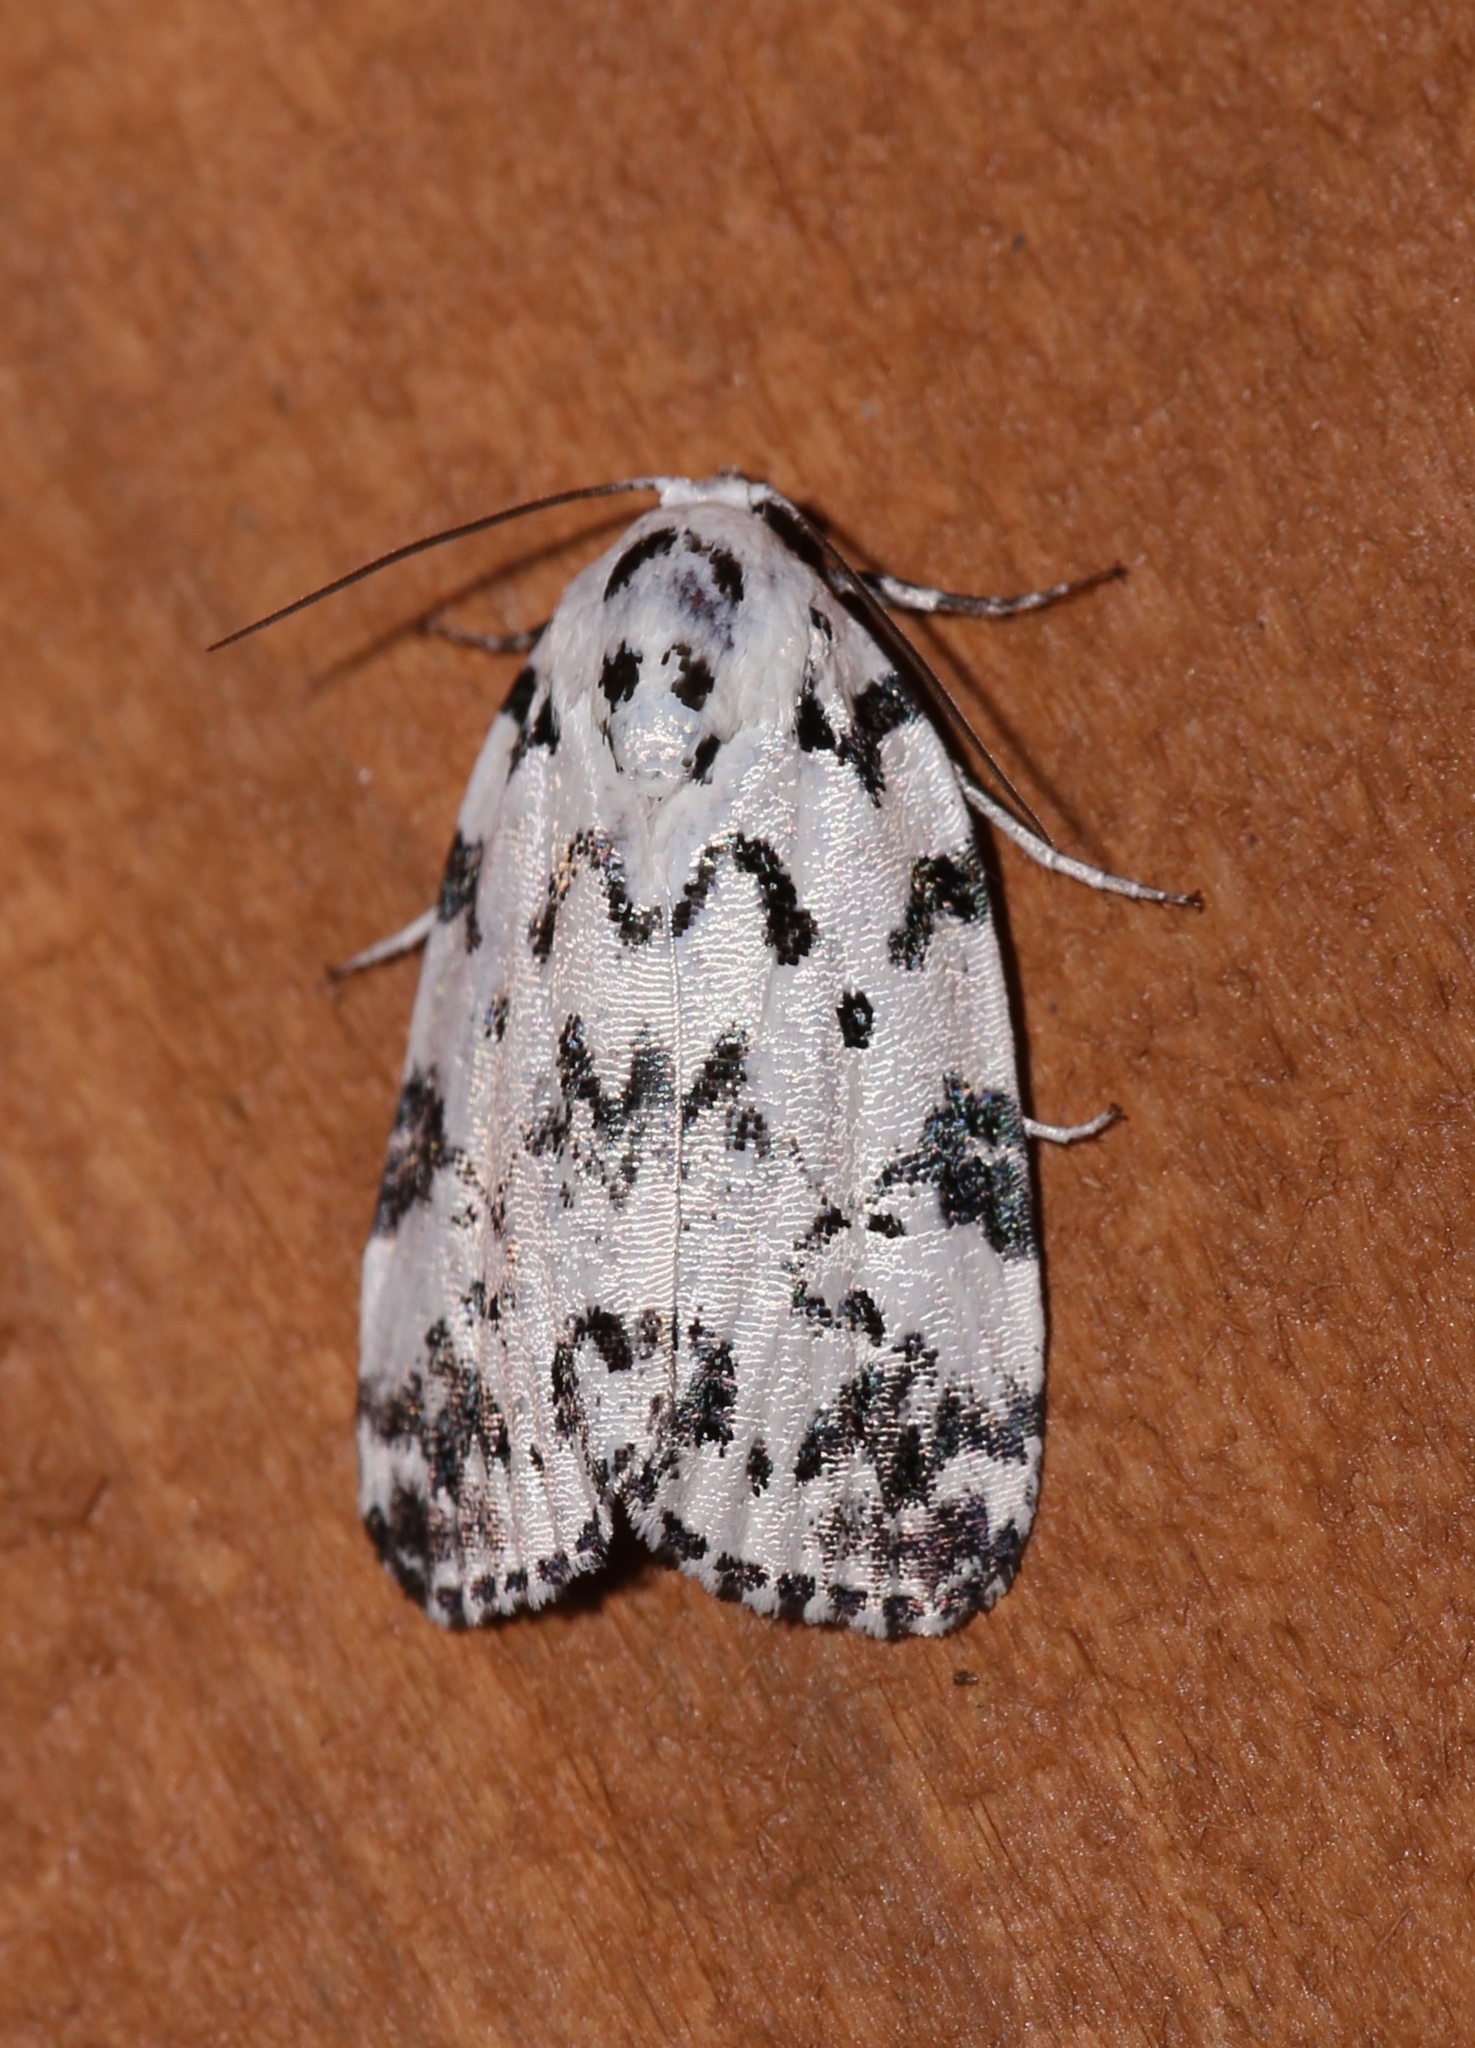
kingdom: Animalia
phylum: Arthropoda
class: Insecta
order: Lepidoptera
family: Noctuidae
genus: Polygrammate
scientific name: Polygrammate hebraeicum
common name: Hebrew moth
